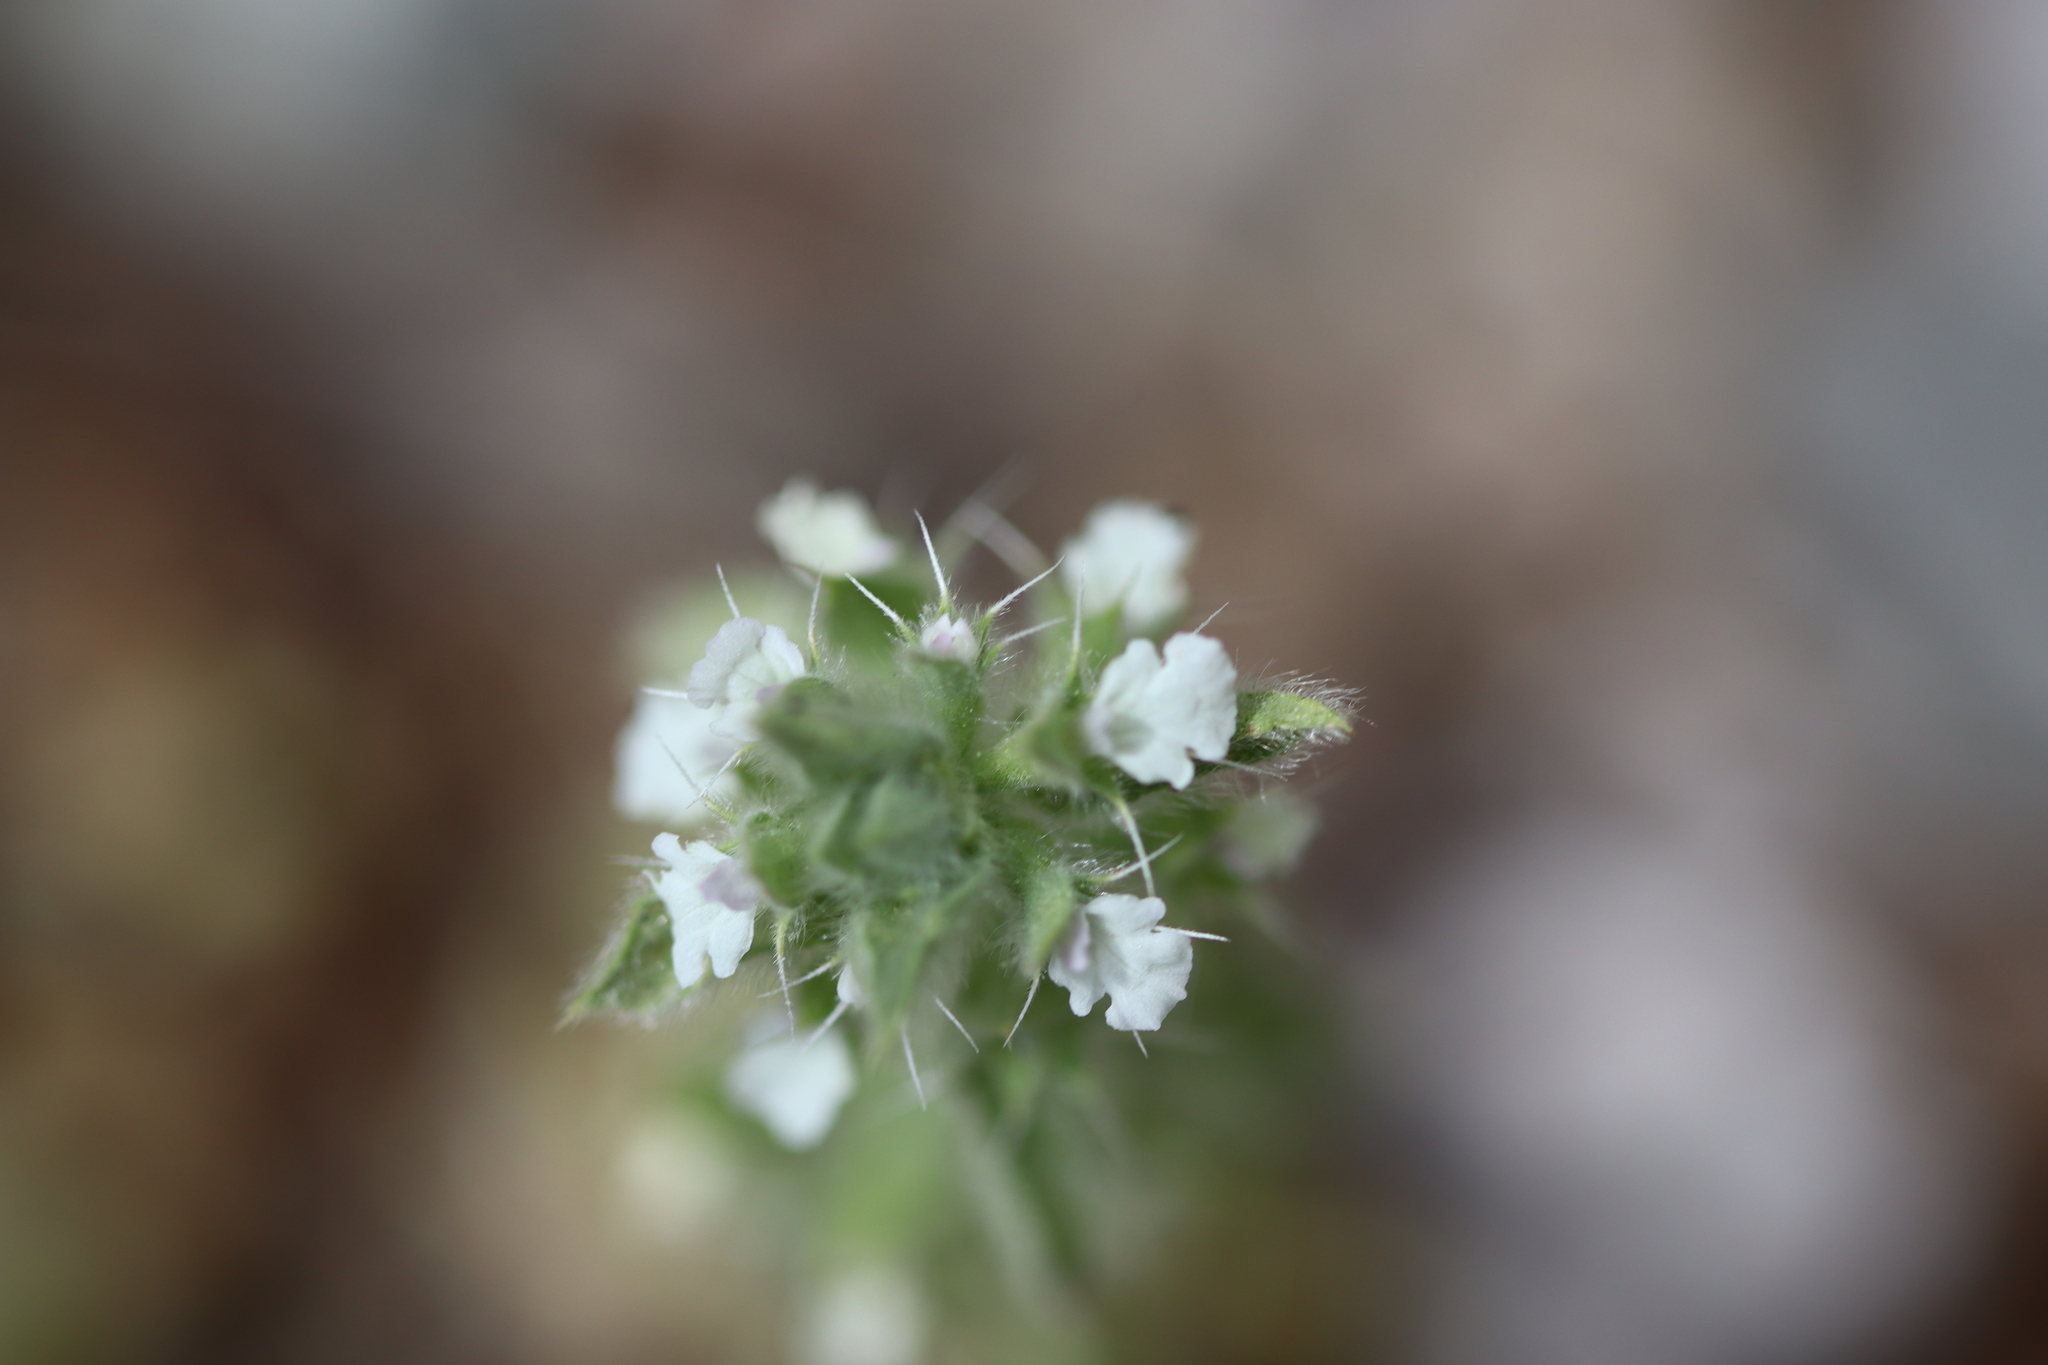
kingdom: Plantae
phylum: Tracheophyta
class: Magnoliopsida
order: Lamiales
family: Lamiaceae
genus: Sideritis
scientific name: Sideritis romana
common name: Simplebeak ironwort
